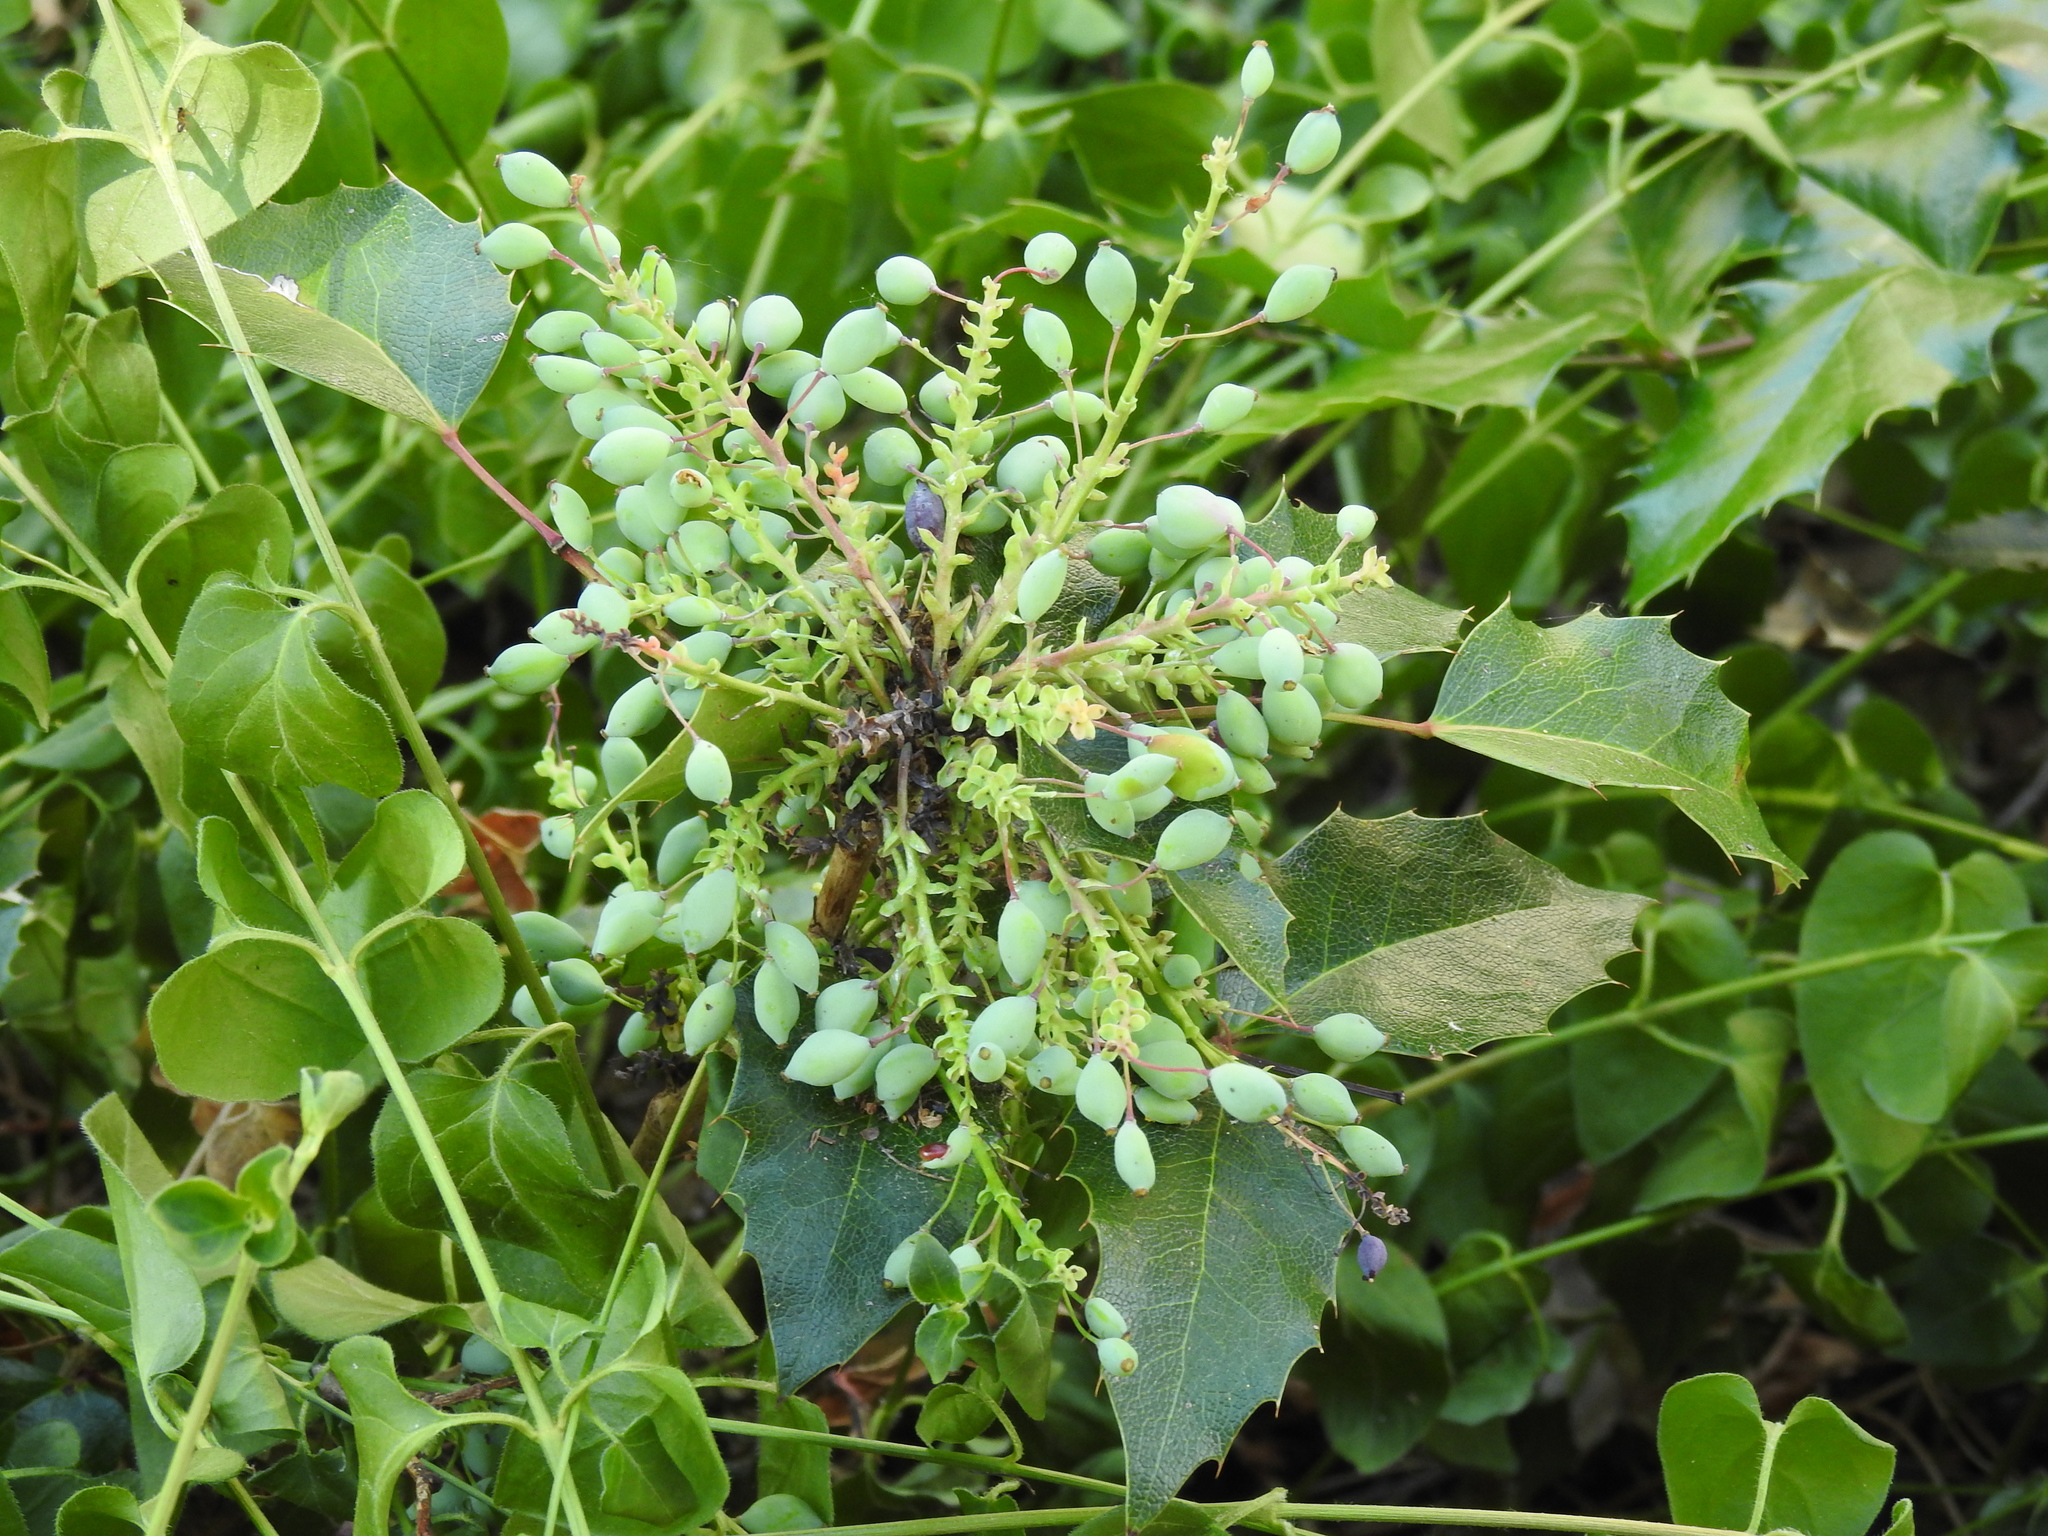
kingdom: Plantae
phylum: Tracheophyta
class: Magnoliopsida
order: Ranunculales
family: Berberidaceae
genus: Mahonia
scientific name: Mahonia aquifolium
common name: Oregon-grape
